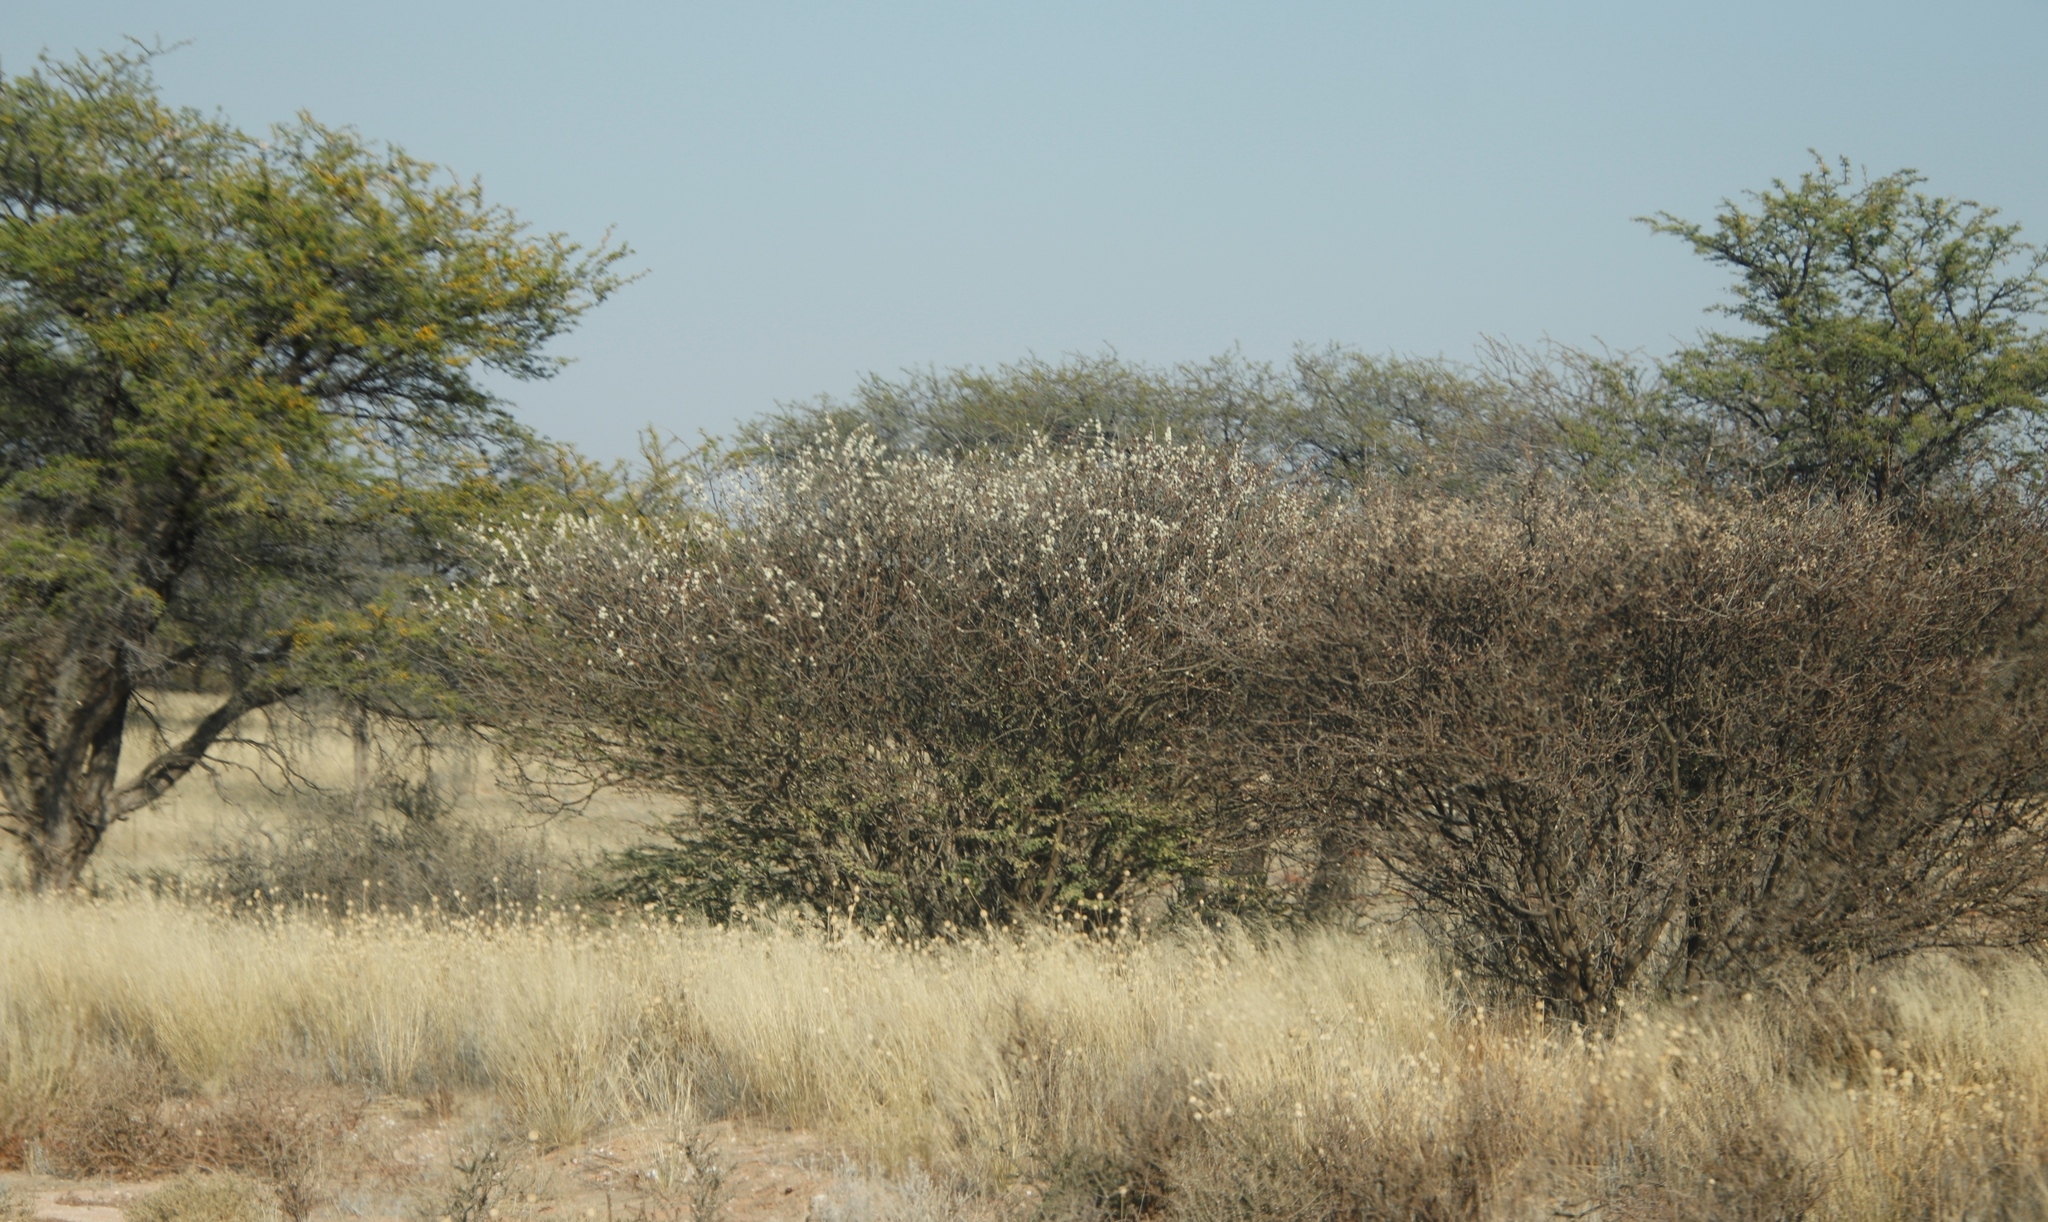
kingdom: Plantae
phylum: Tracheophyta
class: Magnoliopsida
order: Fabales
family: Fabaceae
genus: Senegalia
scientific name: Senegalia mellifera
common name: Hookthorn
